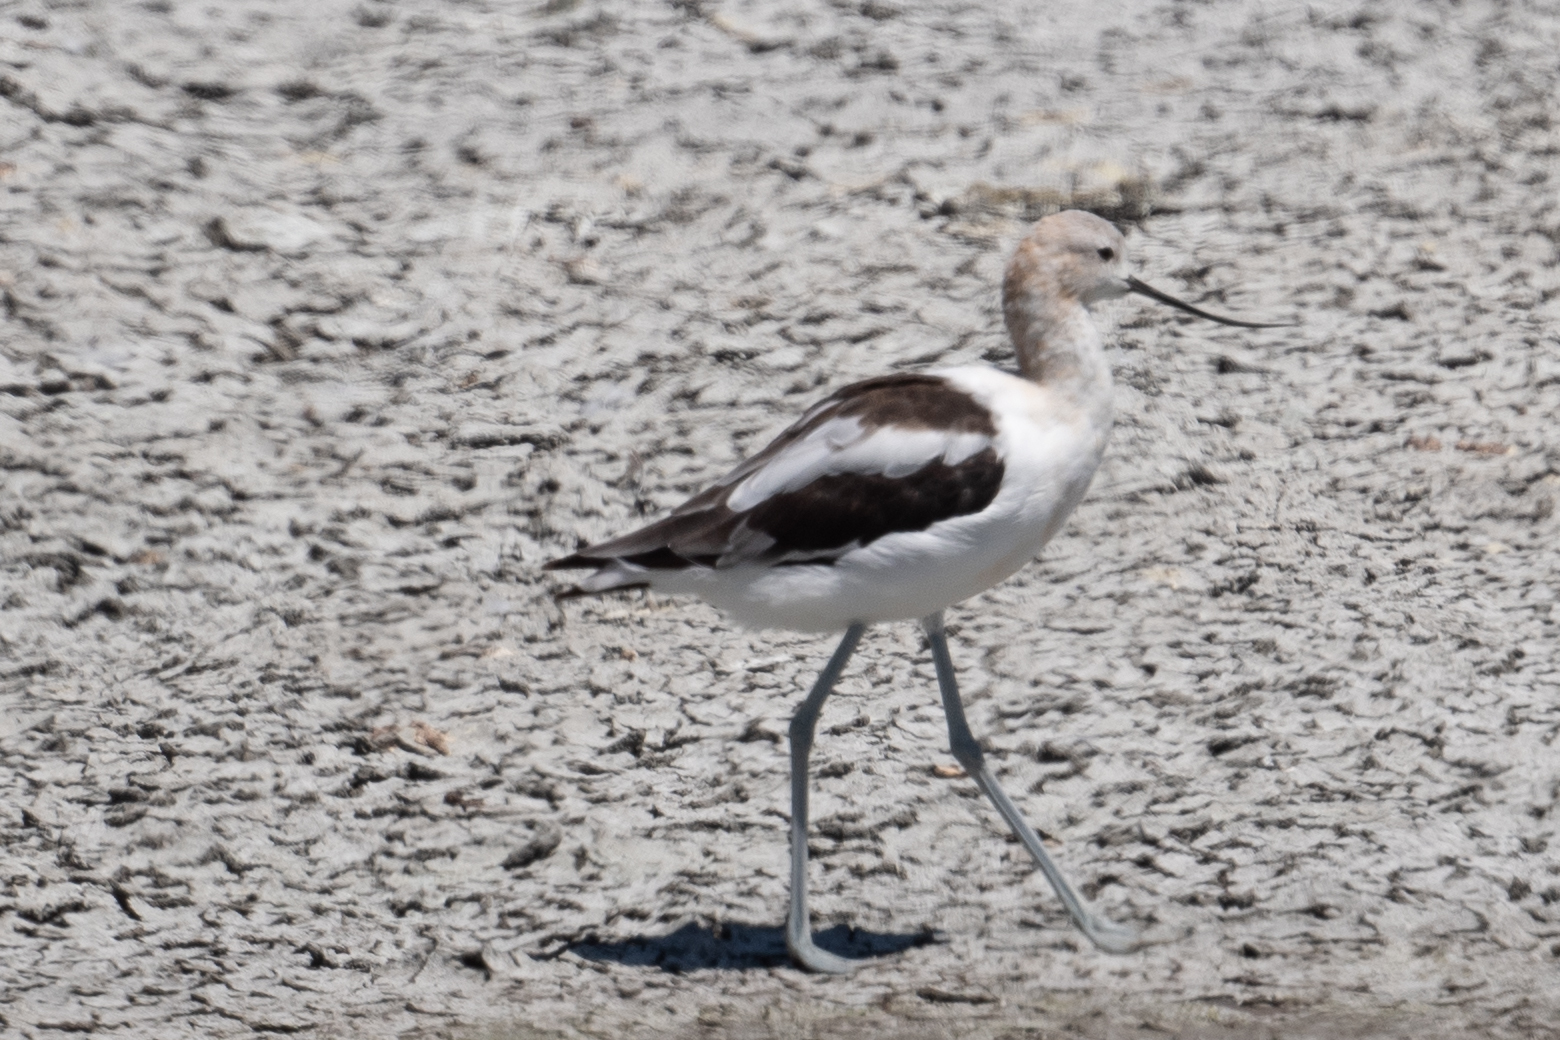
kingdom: Animalia
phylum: Chordata
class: Aves
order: Charadriiformes
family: Recurvirostridae
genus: Recurvirostra
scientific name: Recurvirostra americana
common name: American avocet
